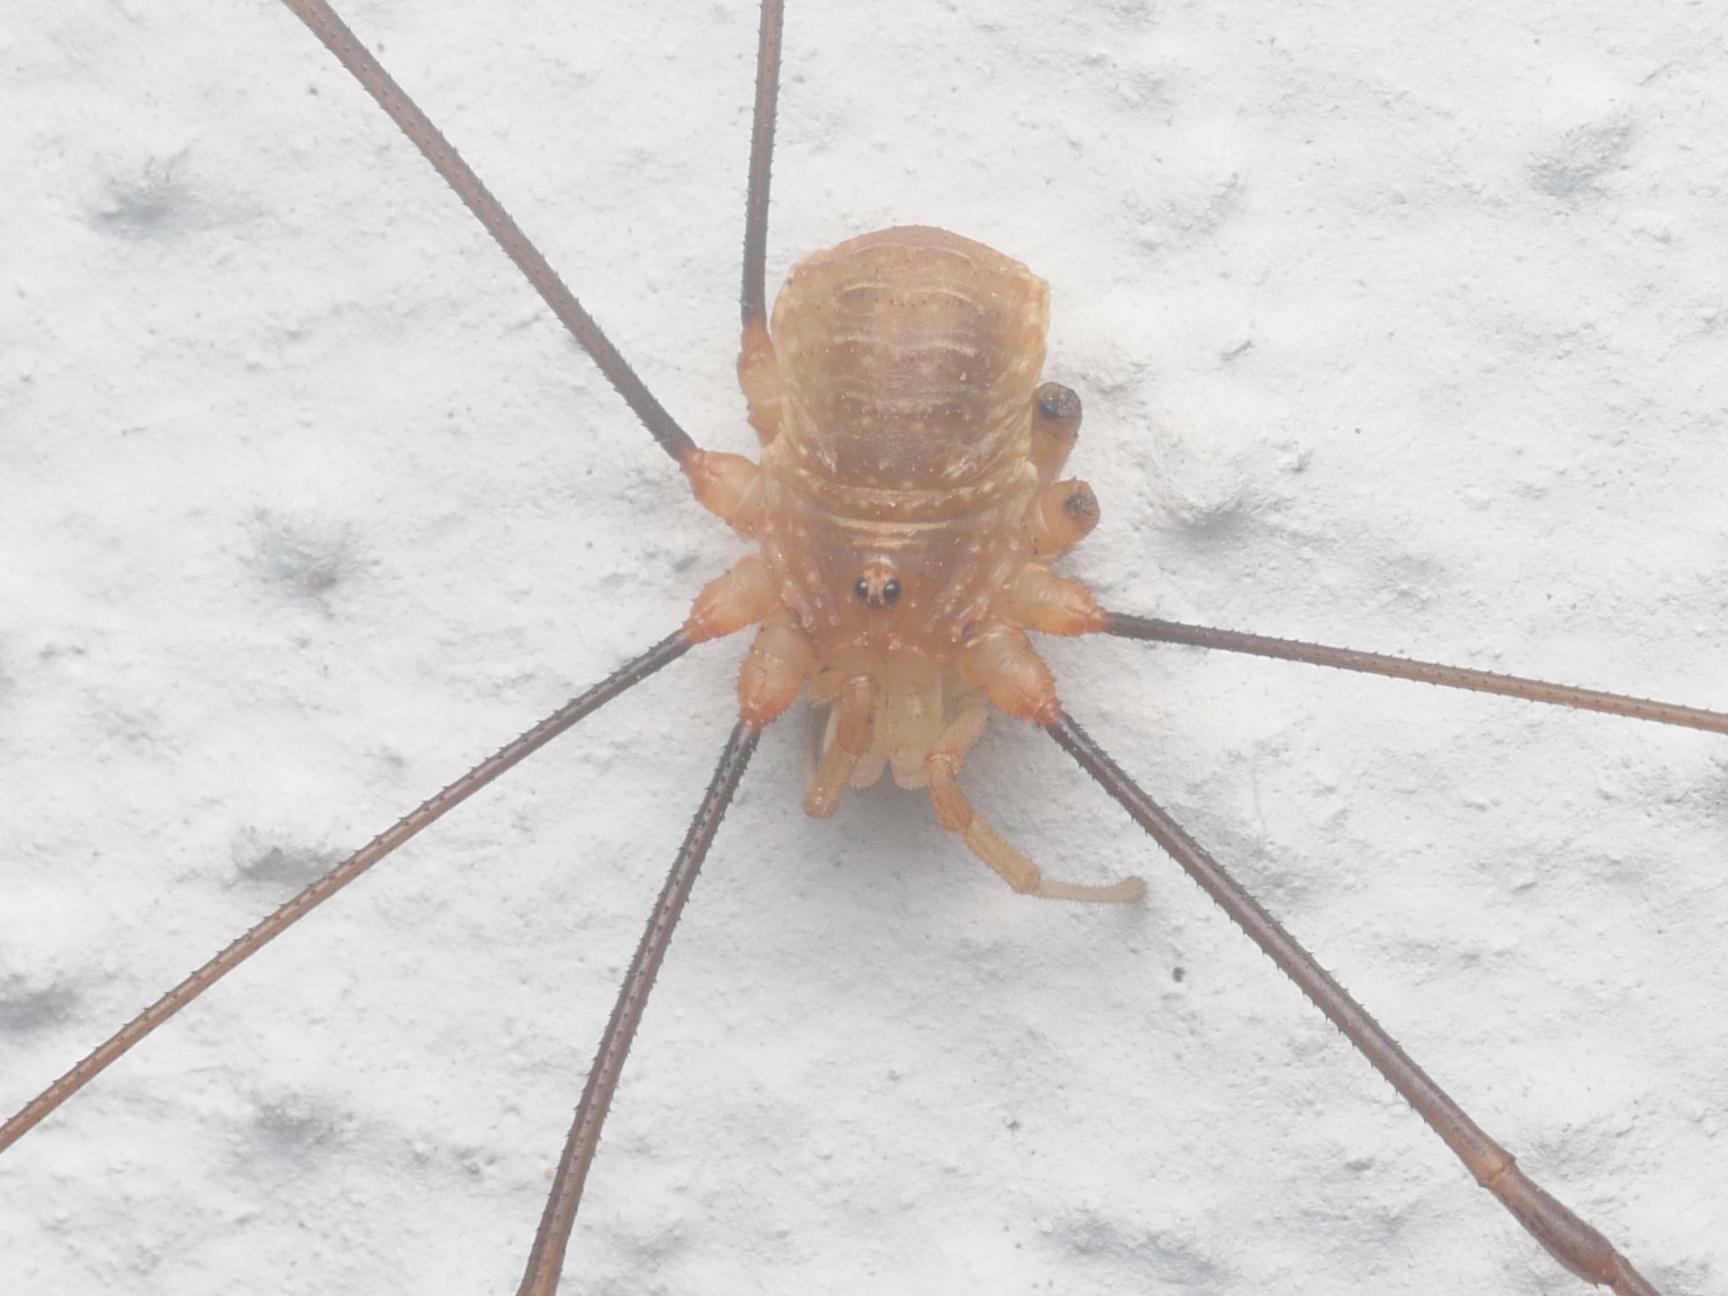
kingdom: Animalia
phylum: Arthropoda
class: Arachnida
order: Opiliones
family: Phalangiidae
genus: Opilio
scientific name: Opilio canestrinii
